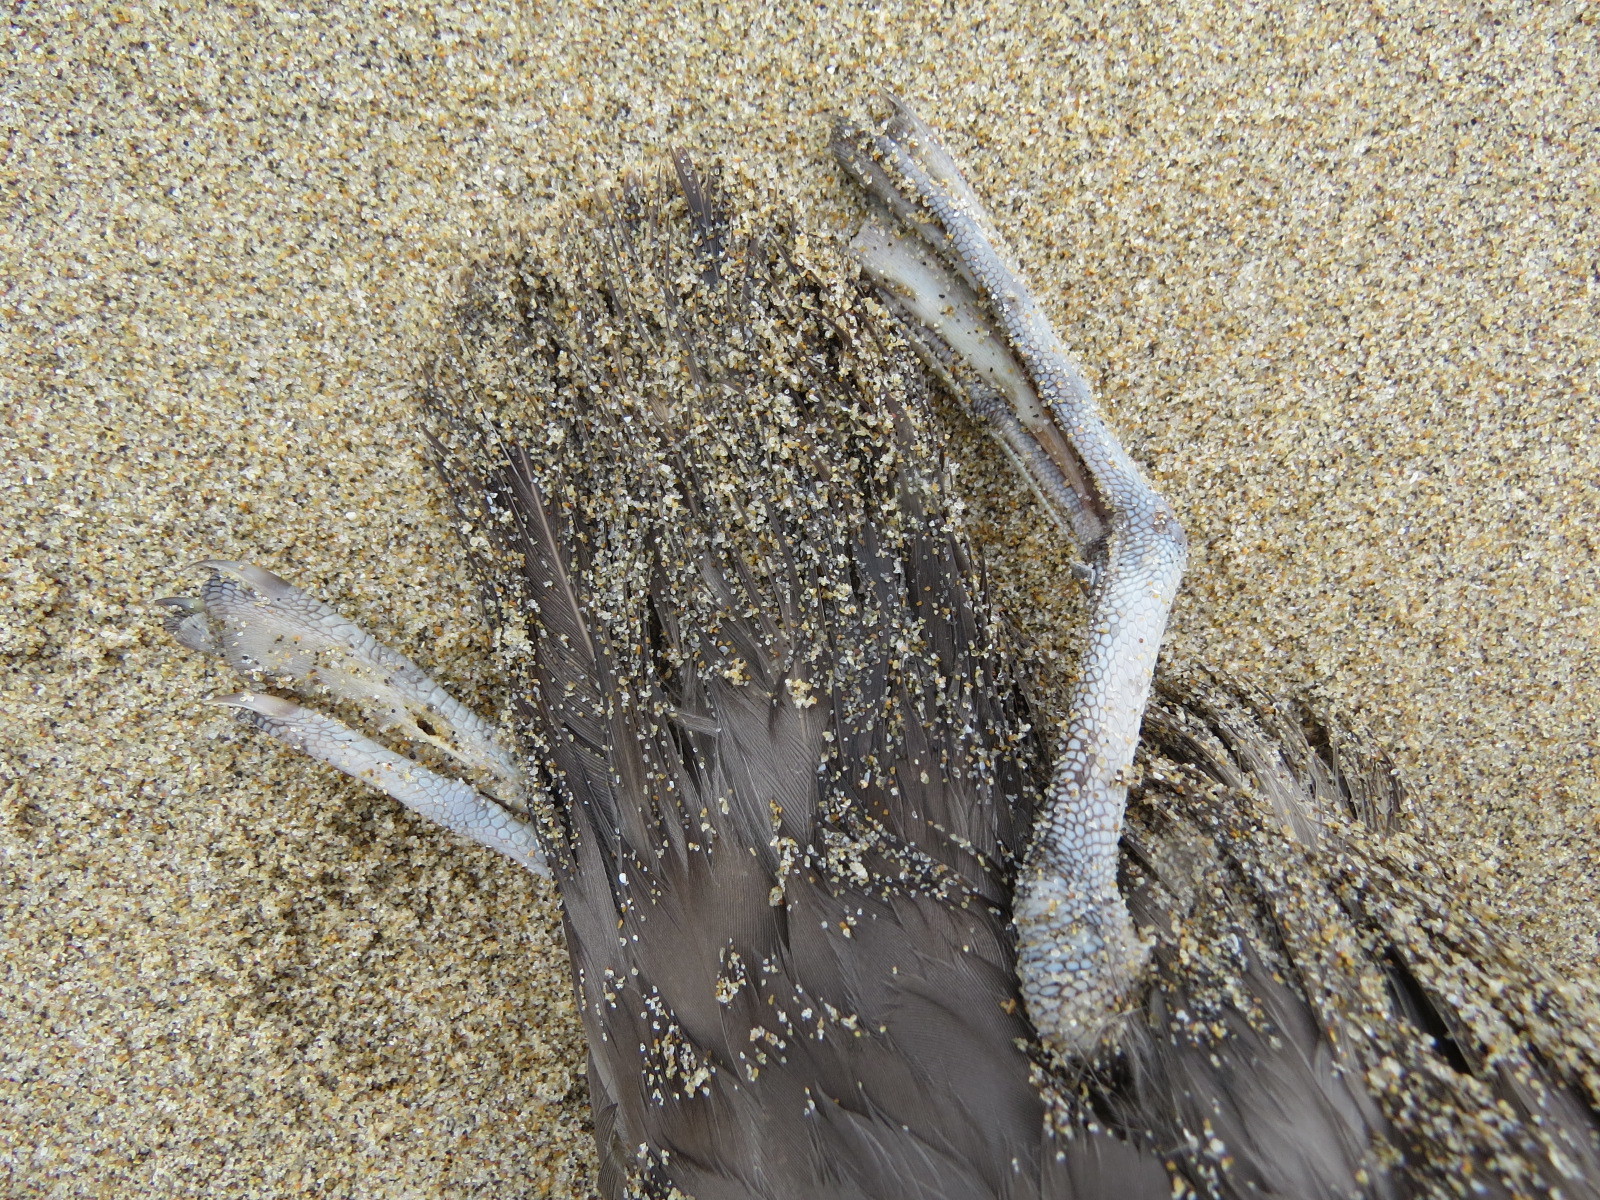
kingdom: Animalia
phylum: Chordata
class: Aves
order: Procellariiformes
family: Procellariidae
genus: Fulmarus
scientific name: Fulmarus glacialis
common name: Northern fulmar
